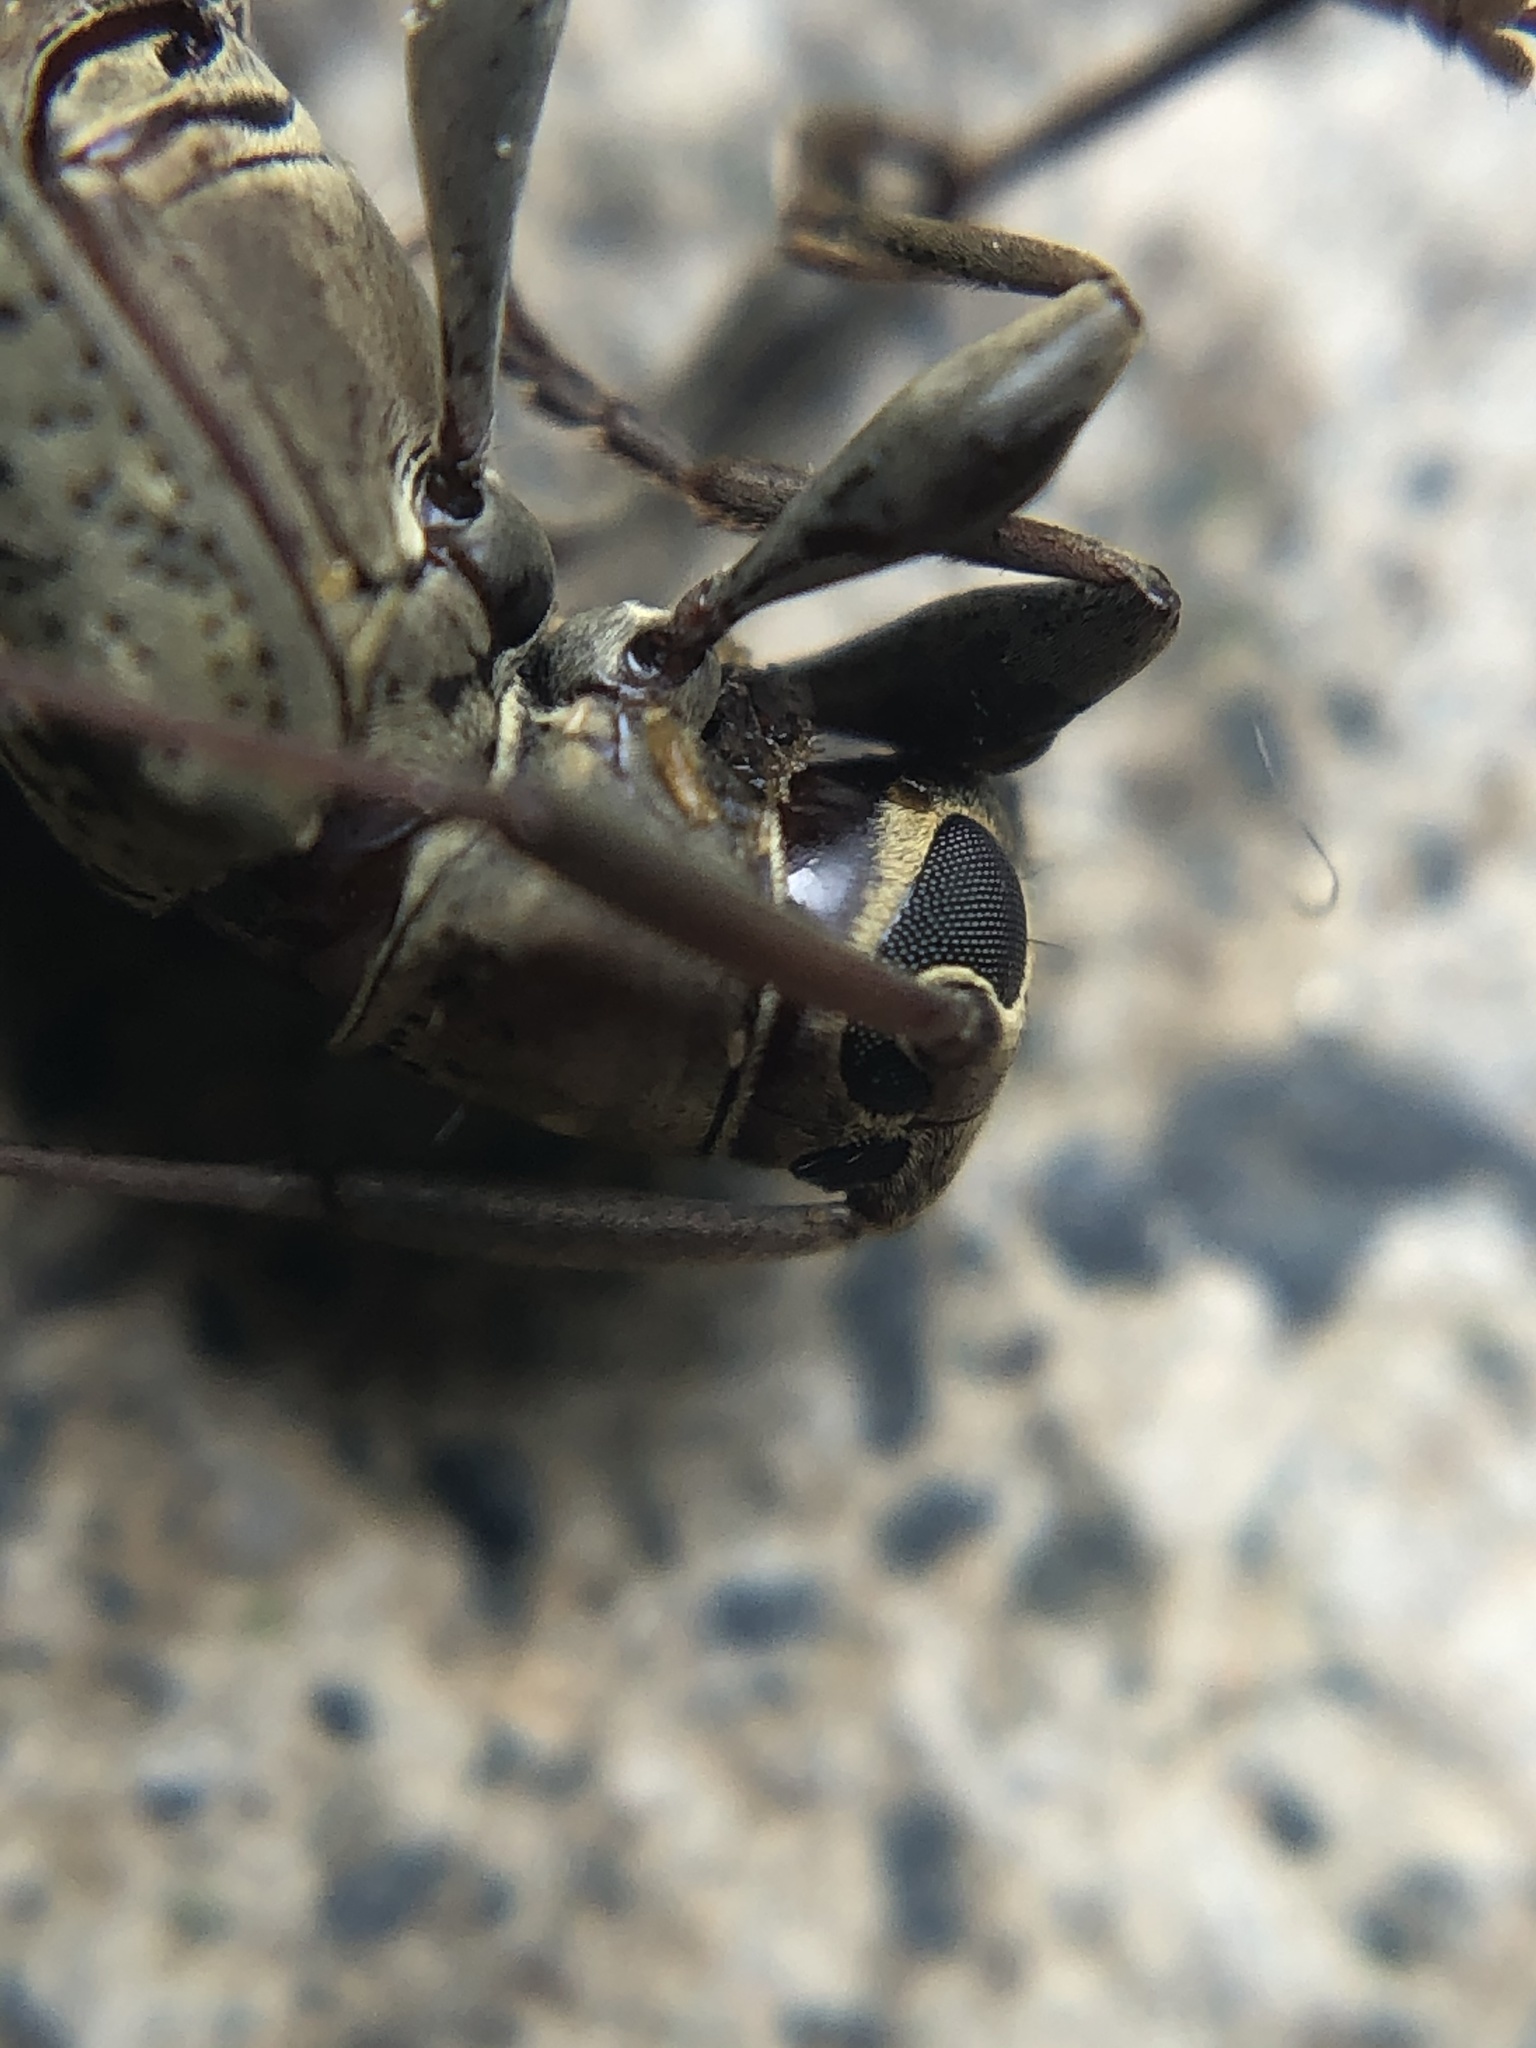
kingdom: Animalia
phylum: Arthropoda
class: Insecta
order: Coleoptera
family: Cerambycidae
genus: Nyssodrysternum
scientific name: Nyssodrysternum serpentinum
